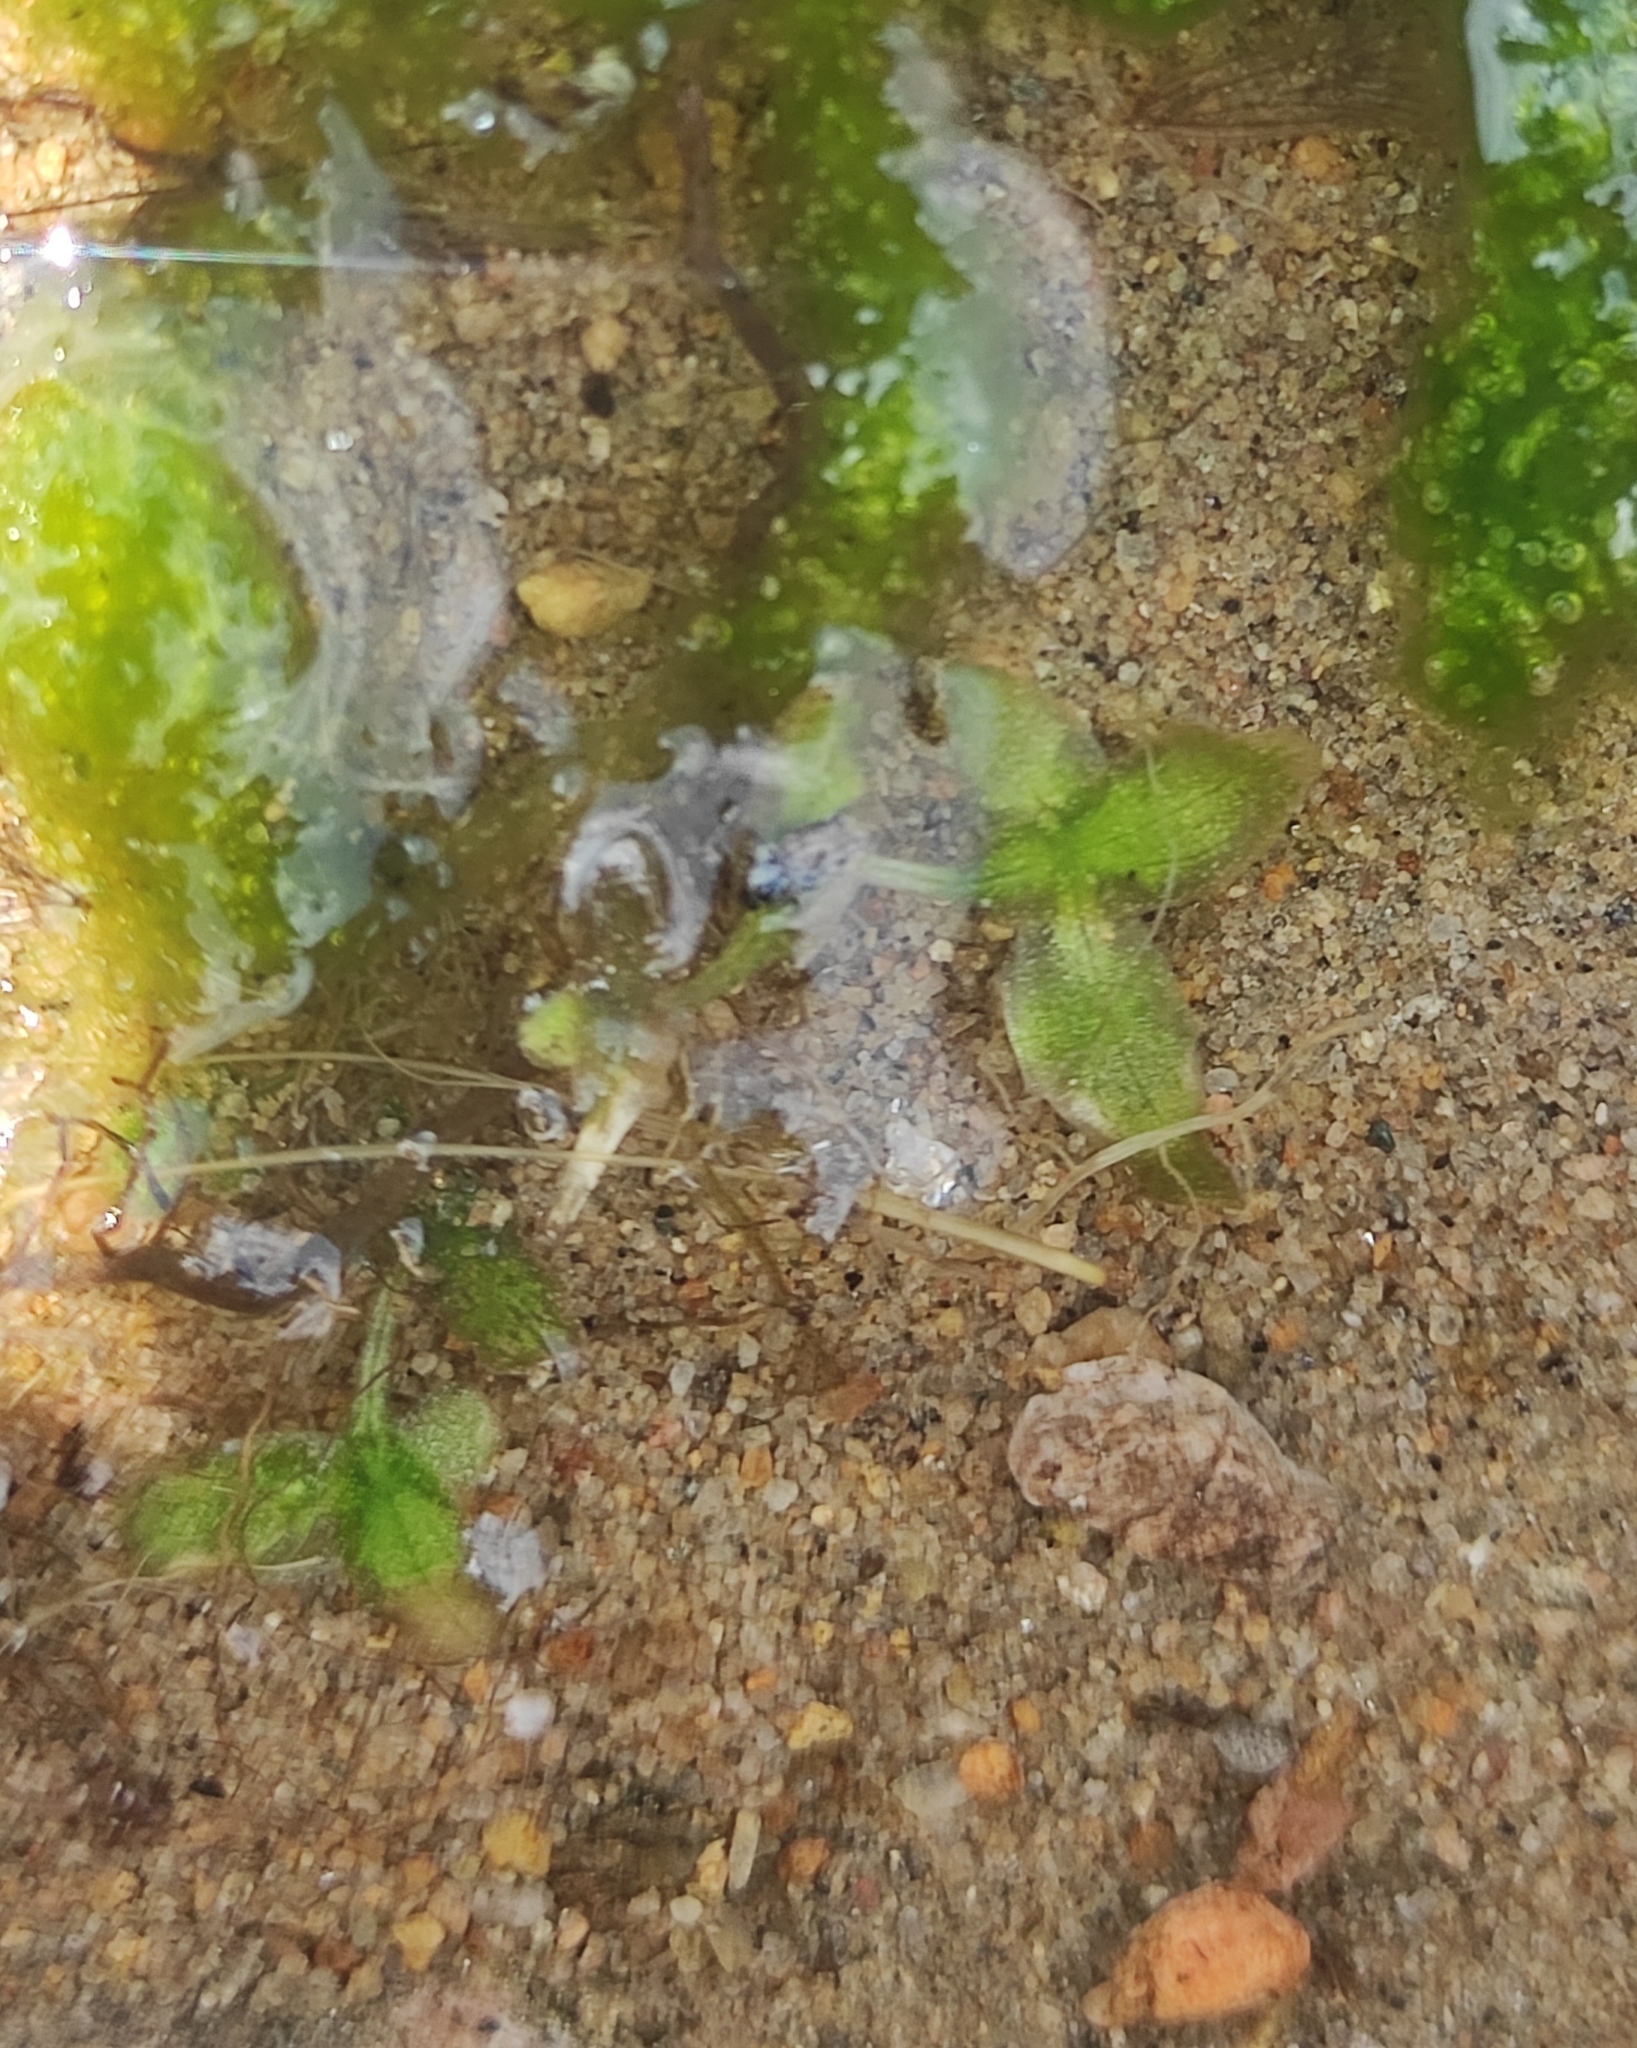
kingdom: Plantae
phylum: Tracheophyta
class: Liliopsida
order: Alismatales
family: Araceae
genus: Lemna
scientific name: Lemna trisulca
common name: Ivy-leaved duckweed
